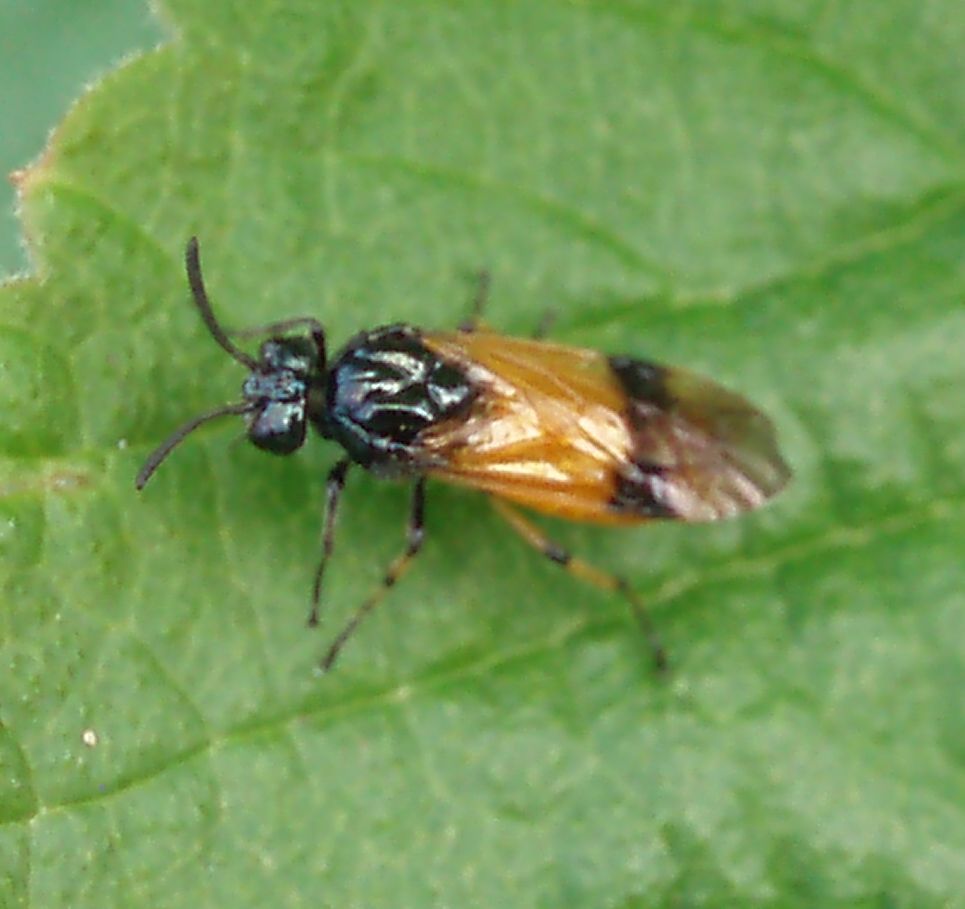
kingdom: Animalia
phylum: Arthropoda
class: Insecta
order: Hymenoptera
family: Argidae
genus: Arge
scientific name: Arge cyanocrocea
